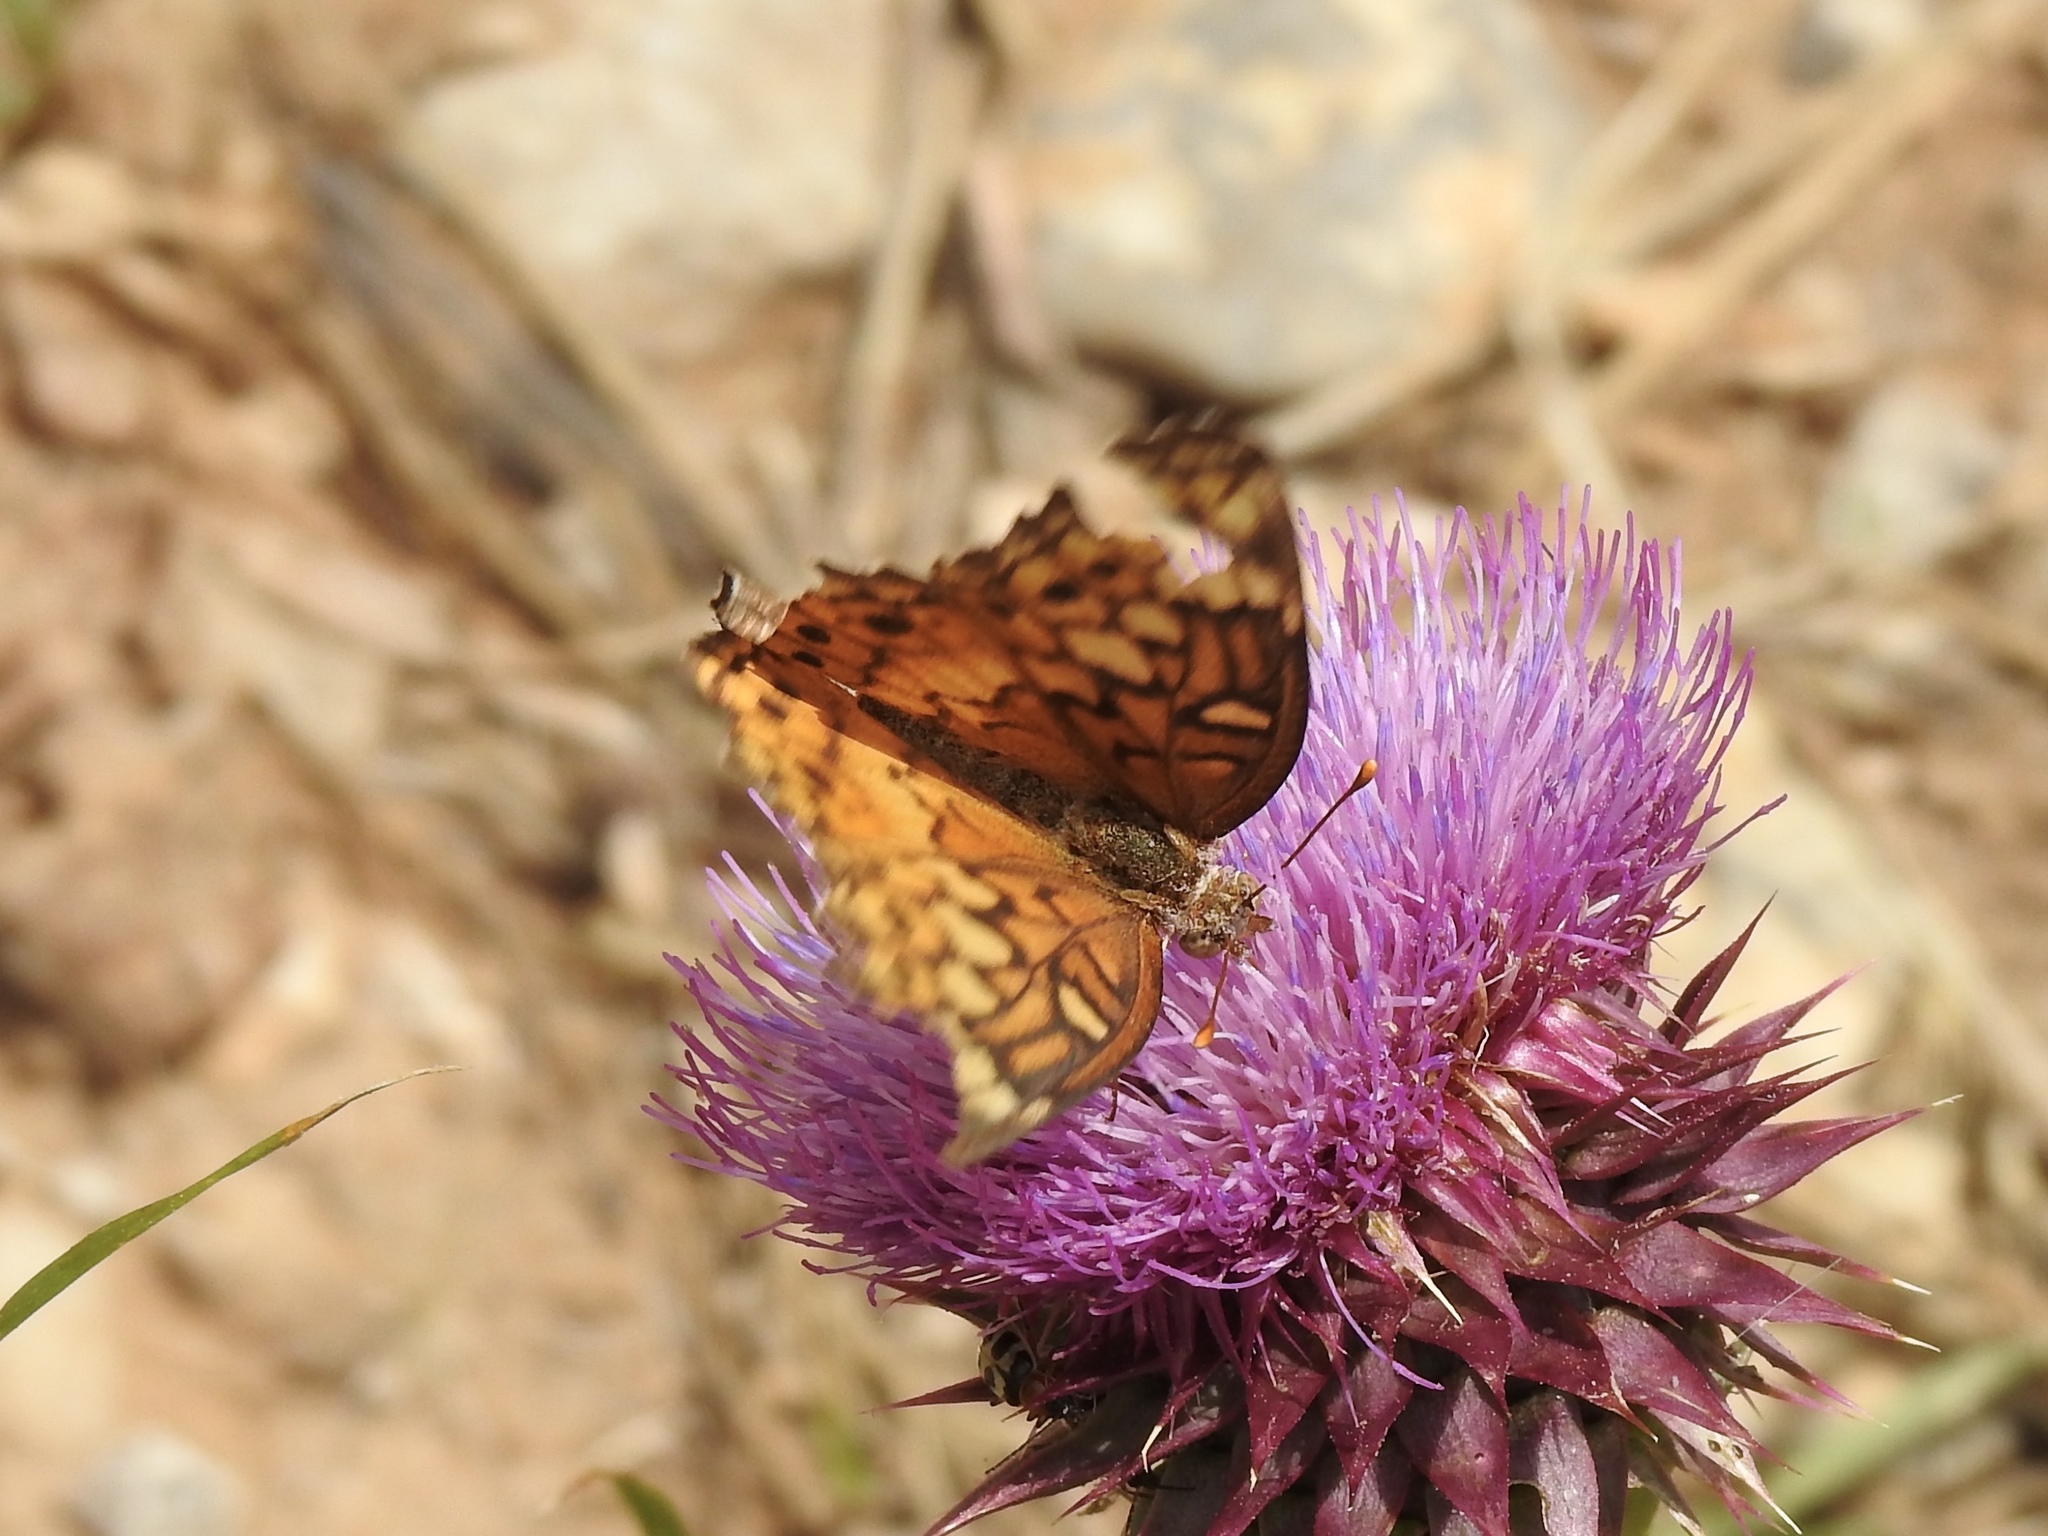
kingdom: Animalia
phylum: Arthropoda
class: Insecta
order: Lepidoptera
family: Nymphalidae
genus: Euptoieta
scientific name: Euptoieta claudia
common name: Variegated fritillary
